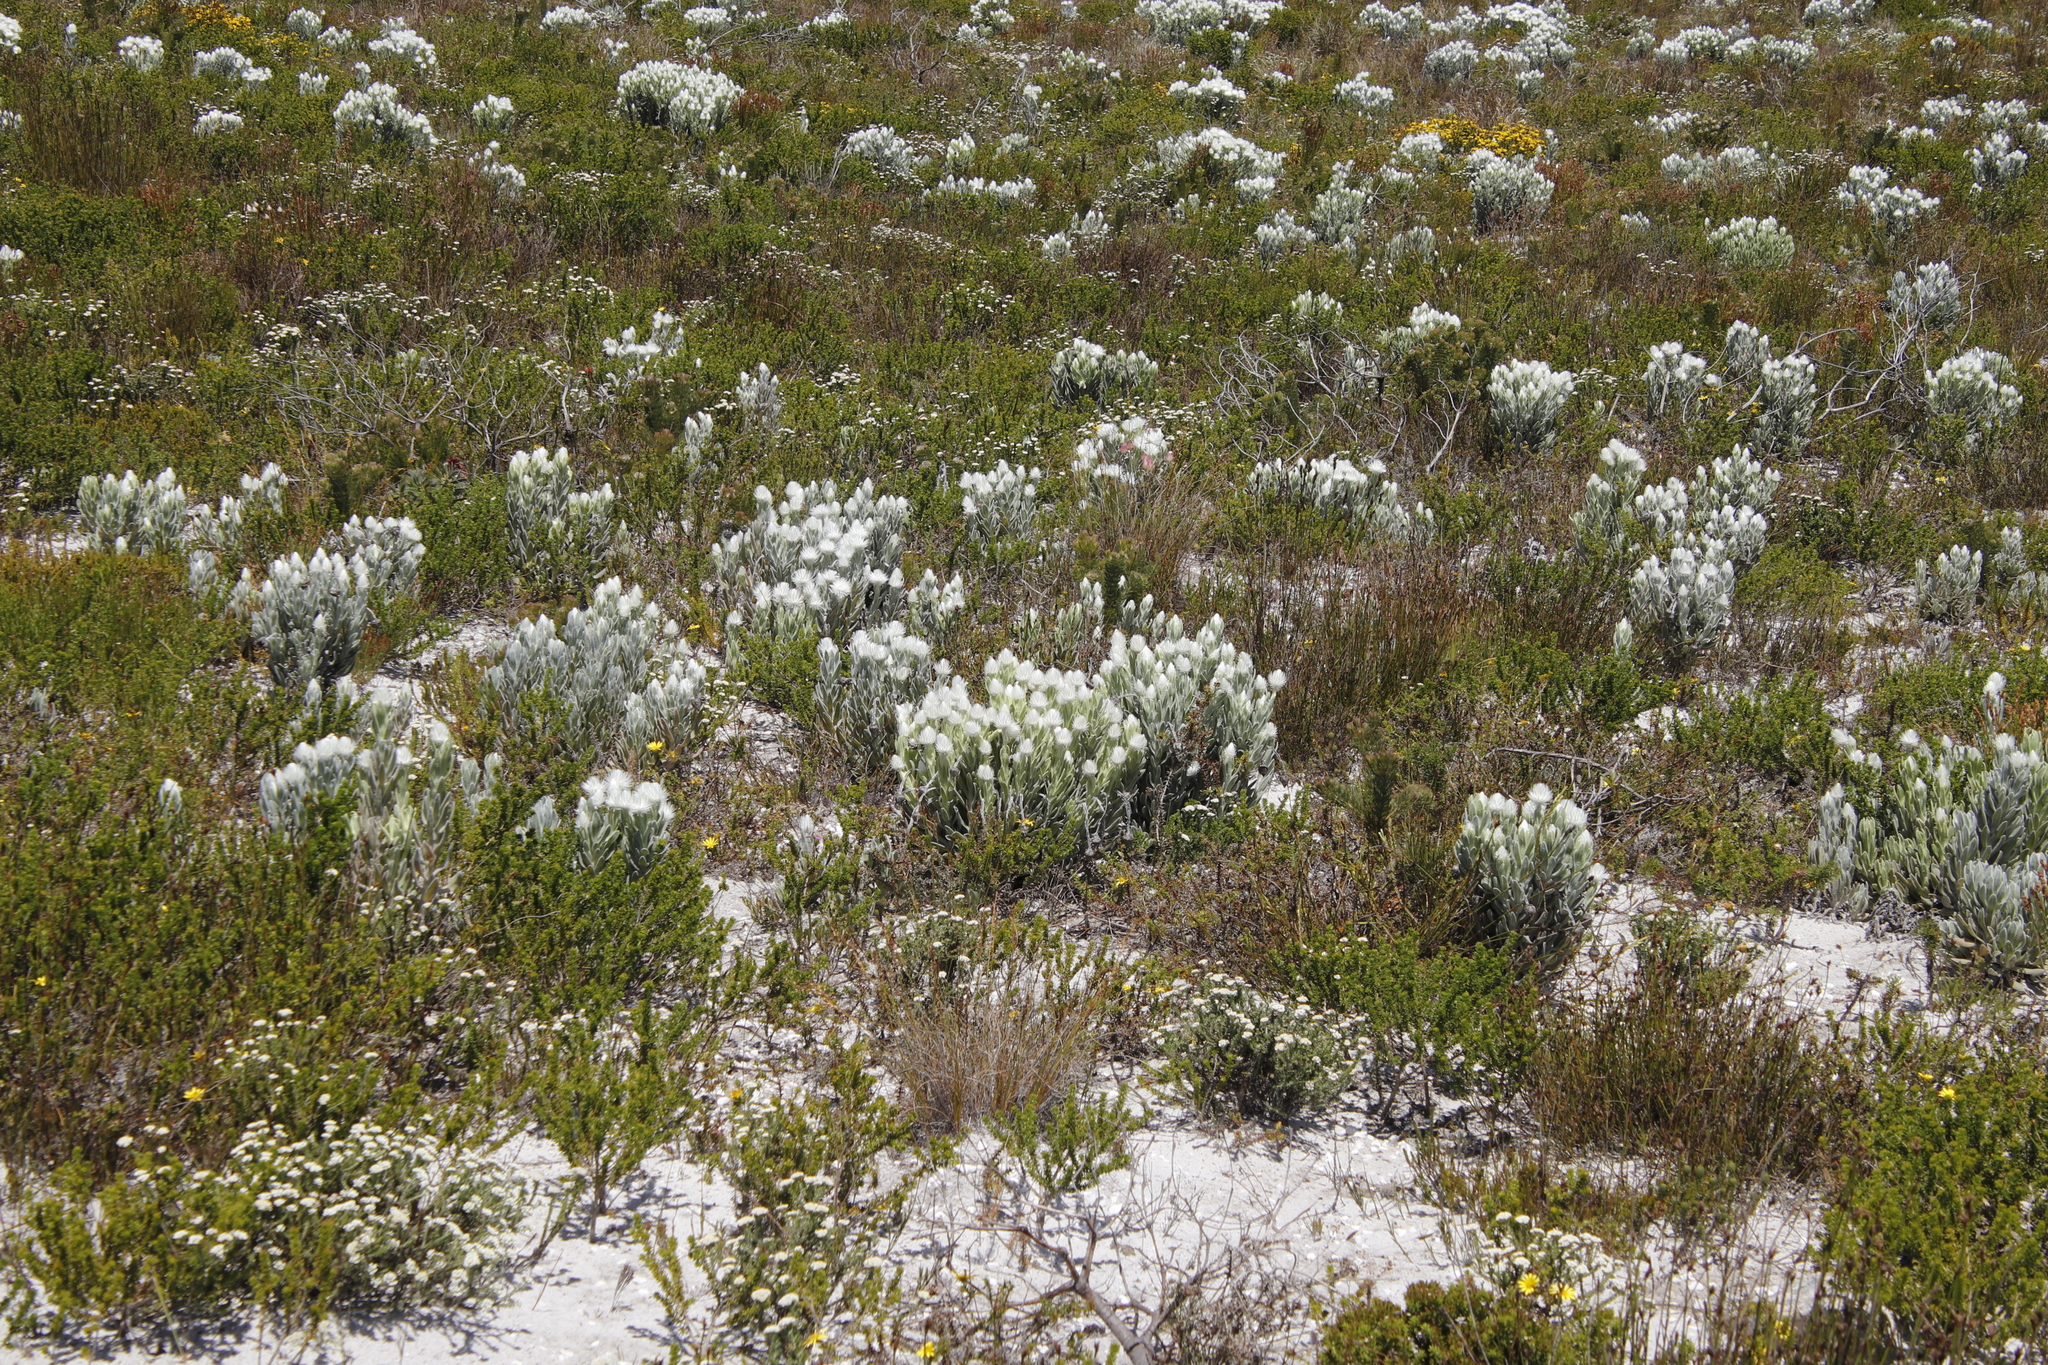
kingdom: Plantae
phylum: Tracheophyta
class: Magnoliopsida
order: Asterales
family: Asteraceae
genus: Syncarpha
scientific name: Syncarpha vestita
